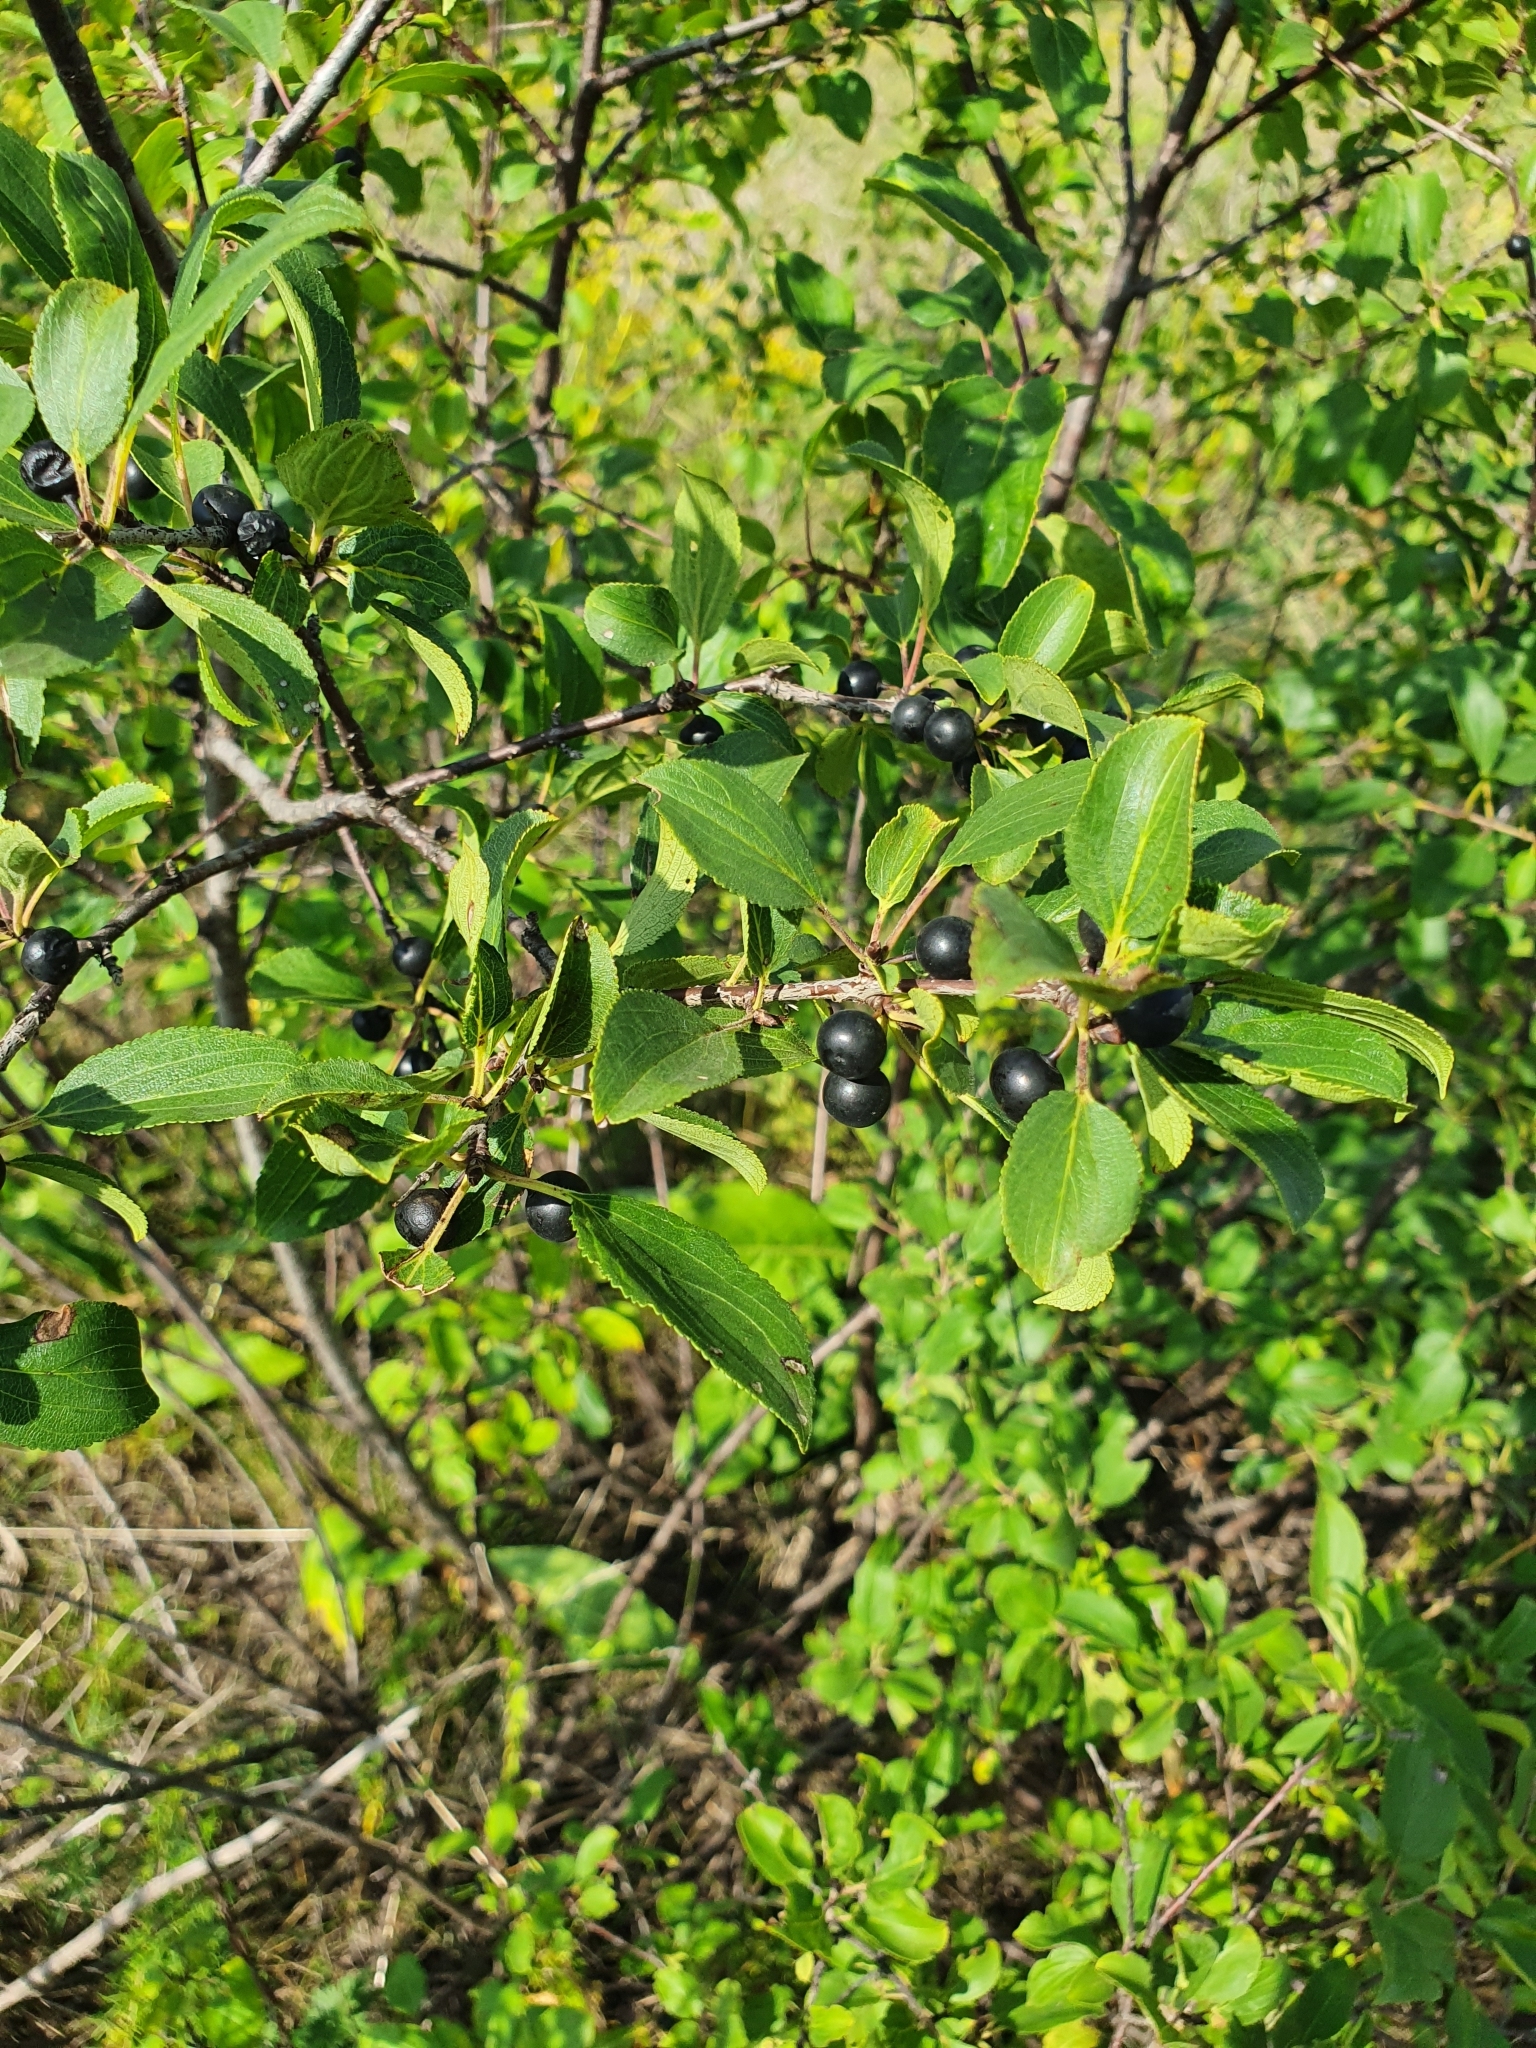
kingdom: Plantae
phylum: Tracheophyta
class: Magnoliopsida
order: Rosales
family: Rhamnaceae
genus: Rhamnus
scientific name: Rhamnus cathartica
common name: Common buckthorn
